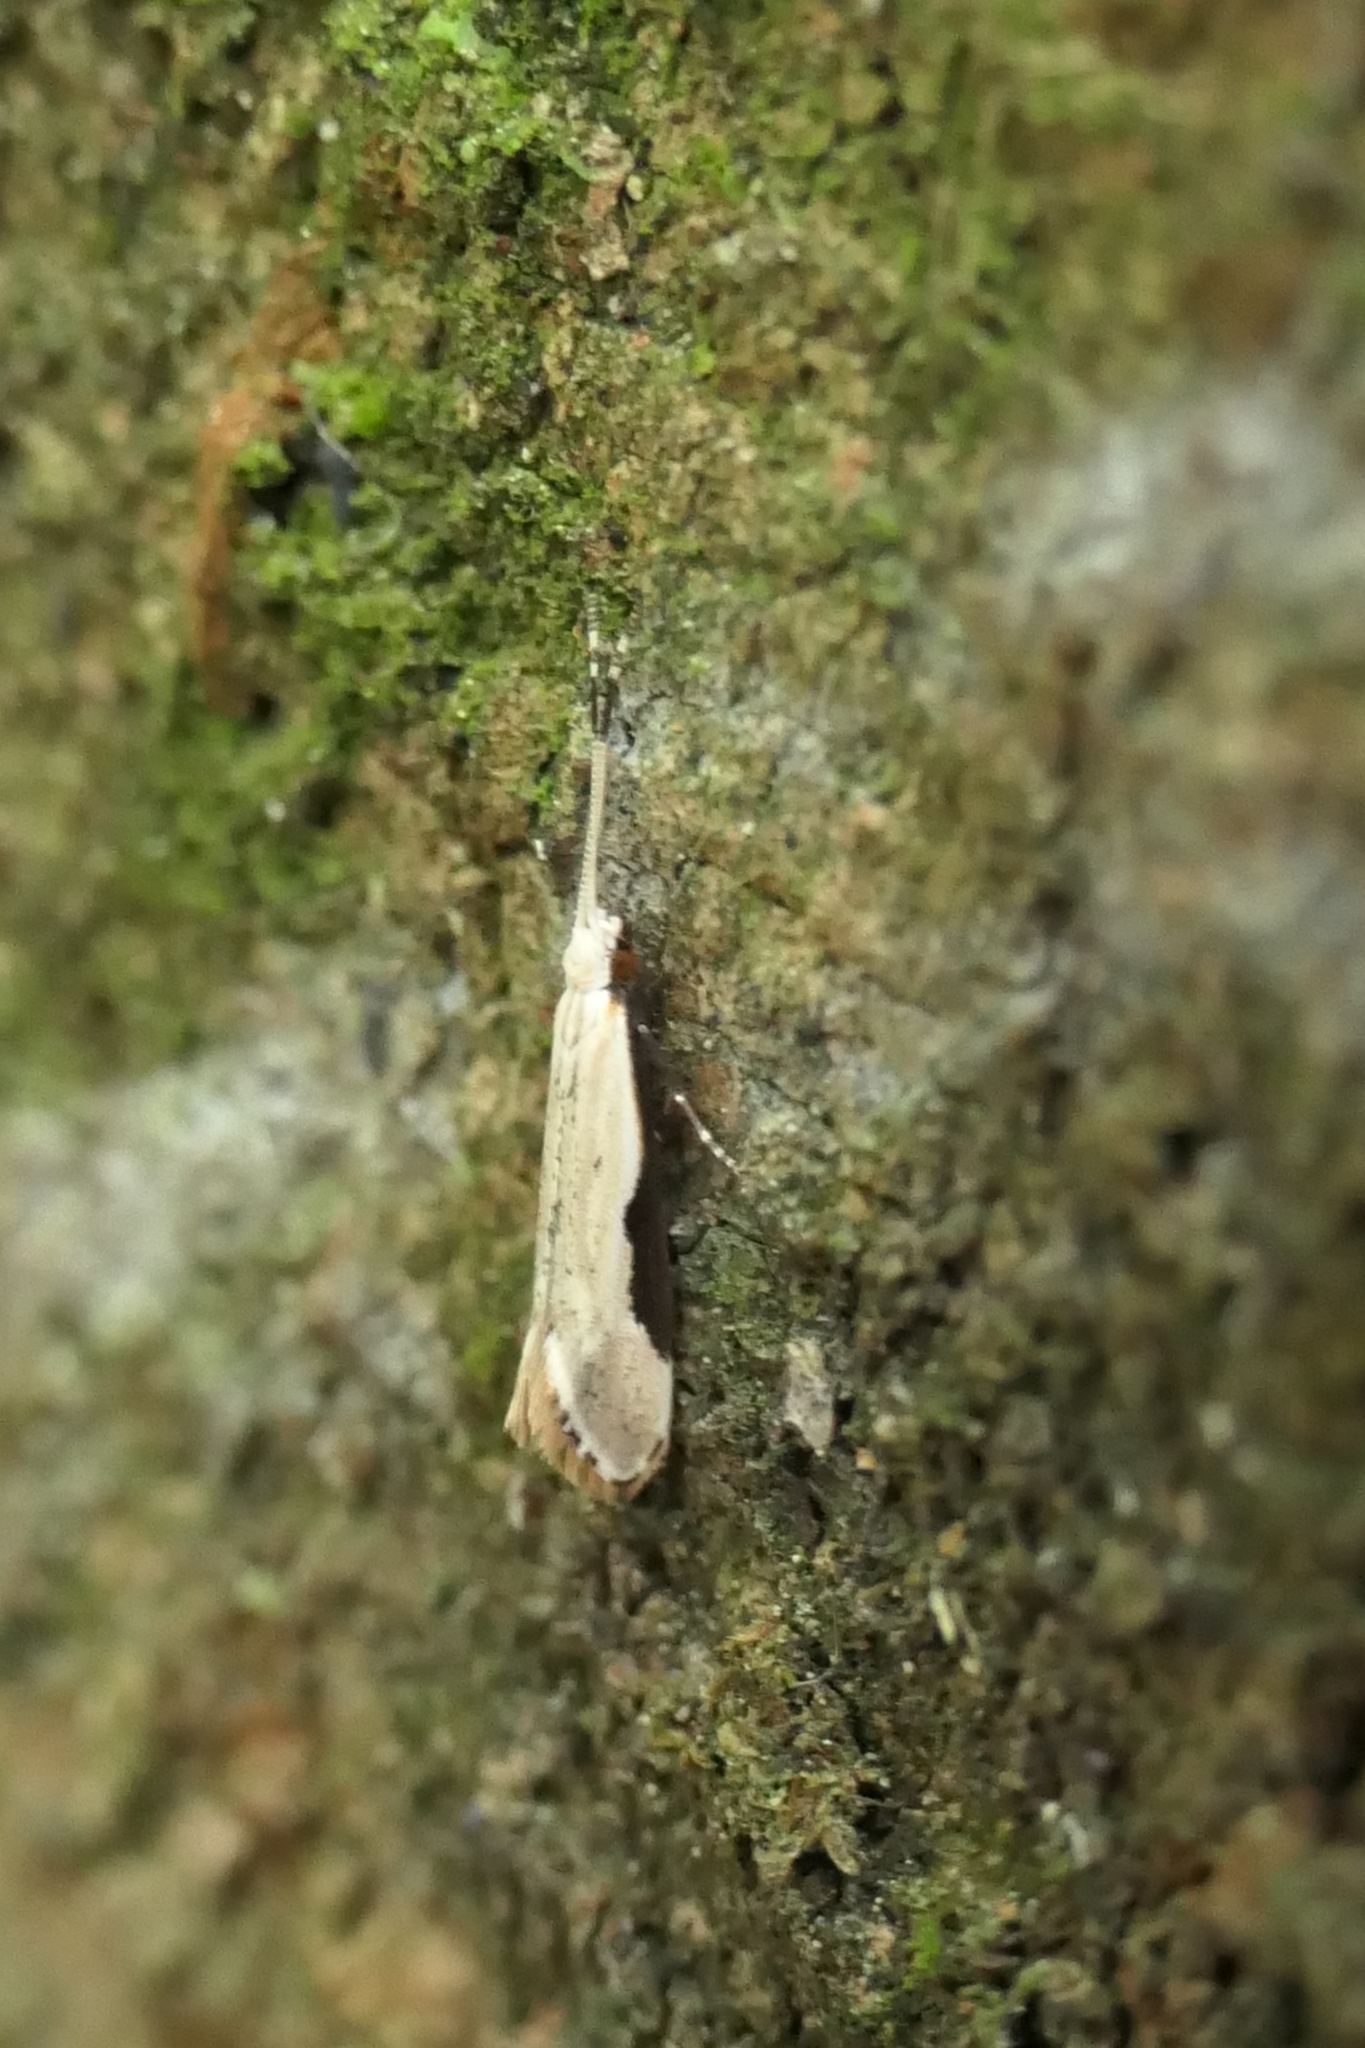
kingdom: Animalia
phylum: Arthropoda
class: Insecta
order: Lepidoptera
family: Tineidae
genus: Sagephora
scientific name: Sagephora phortegella
